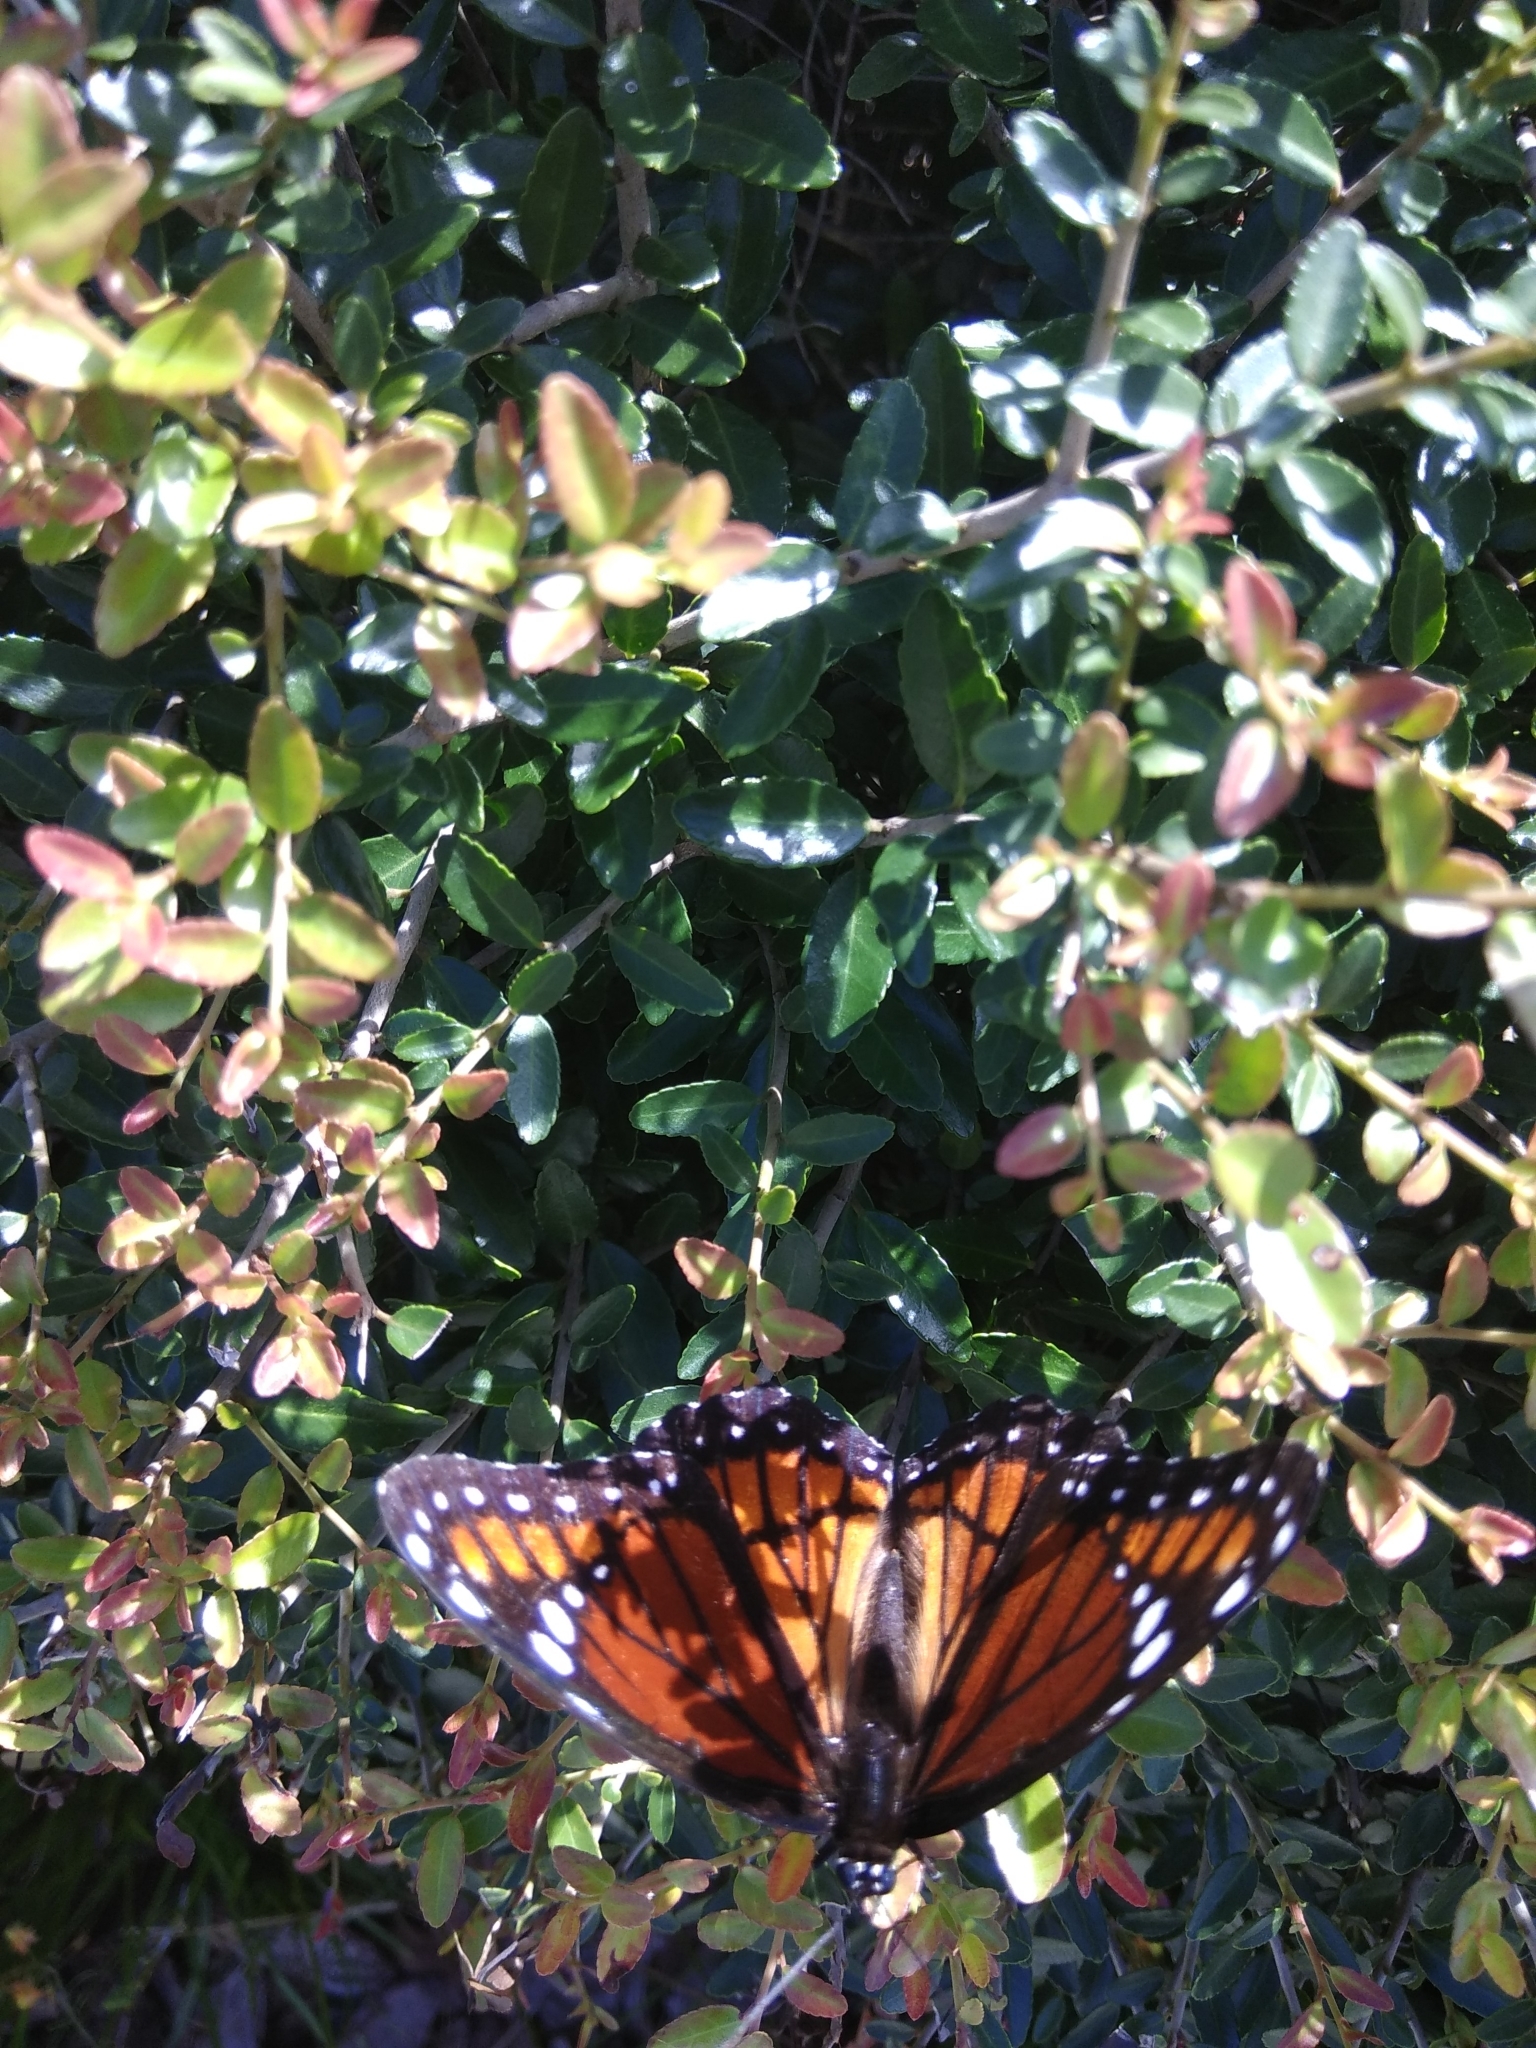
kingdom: Animalia
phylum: Arthropoda
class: Insecta
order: Lepidoptera
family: Nymphalidae
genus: Limenitis
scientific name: Limenitis archippus
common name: Viceroy
